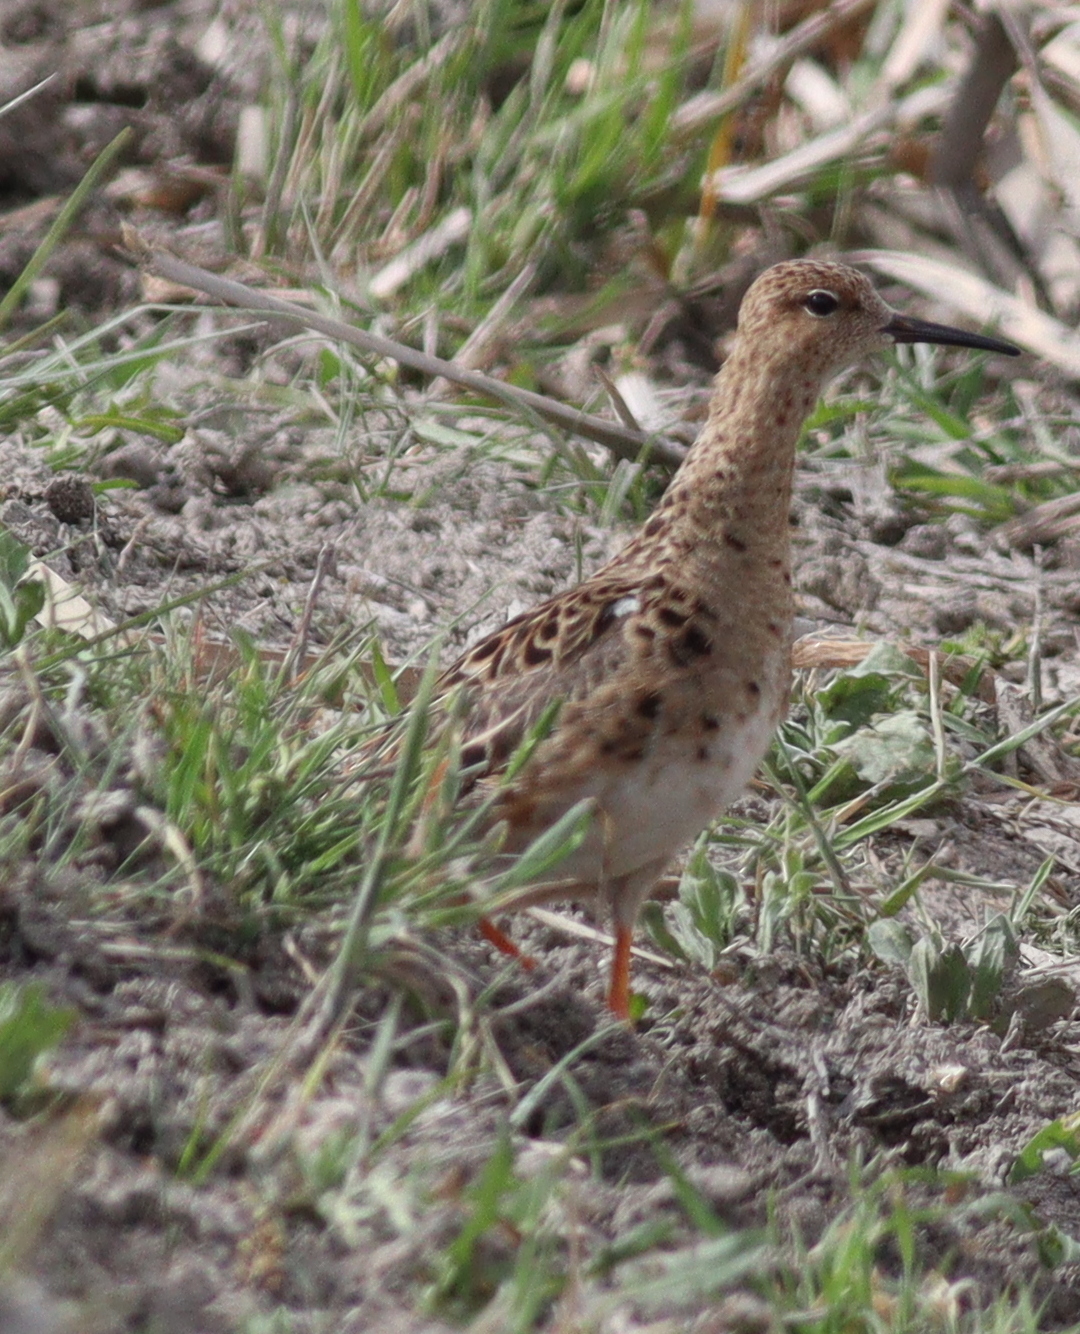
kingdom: Animalia
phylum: Chordata
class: Aves
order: Charadriiformes
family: Scolopacidae
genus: Calidris
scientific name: Calidris pugnax
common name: Ruff
